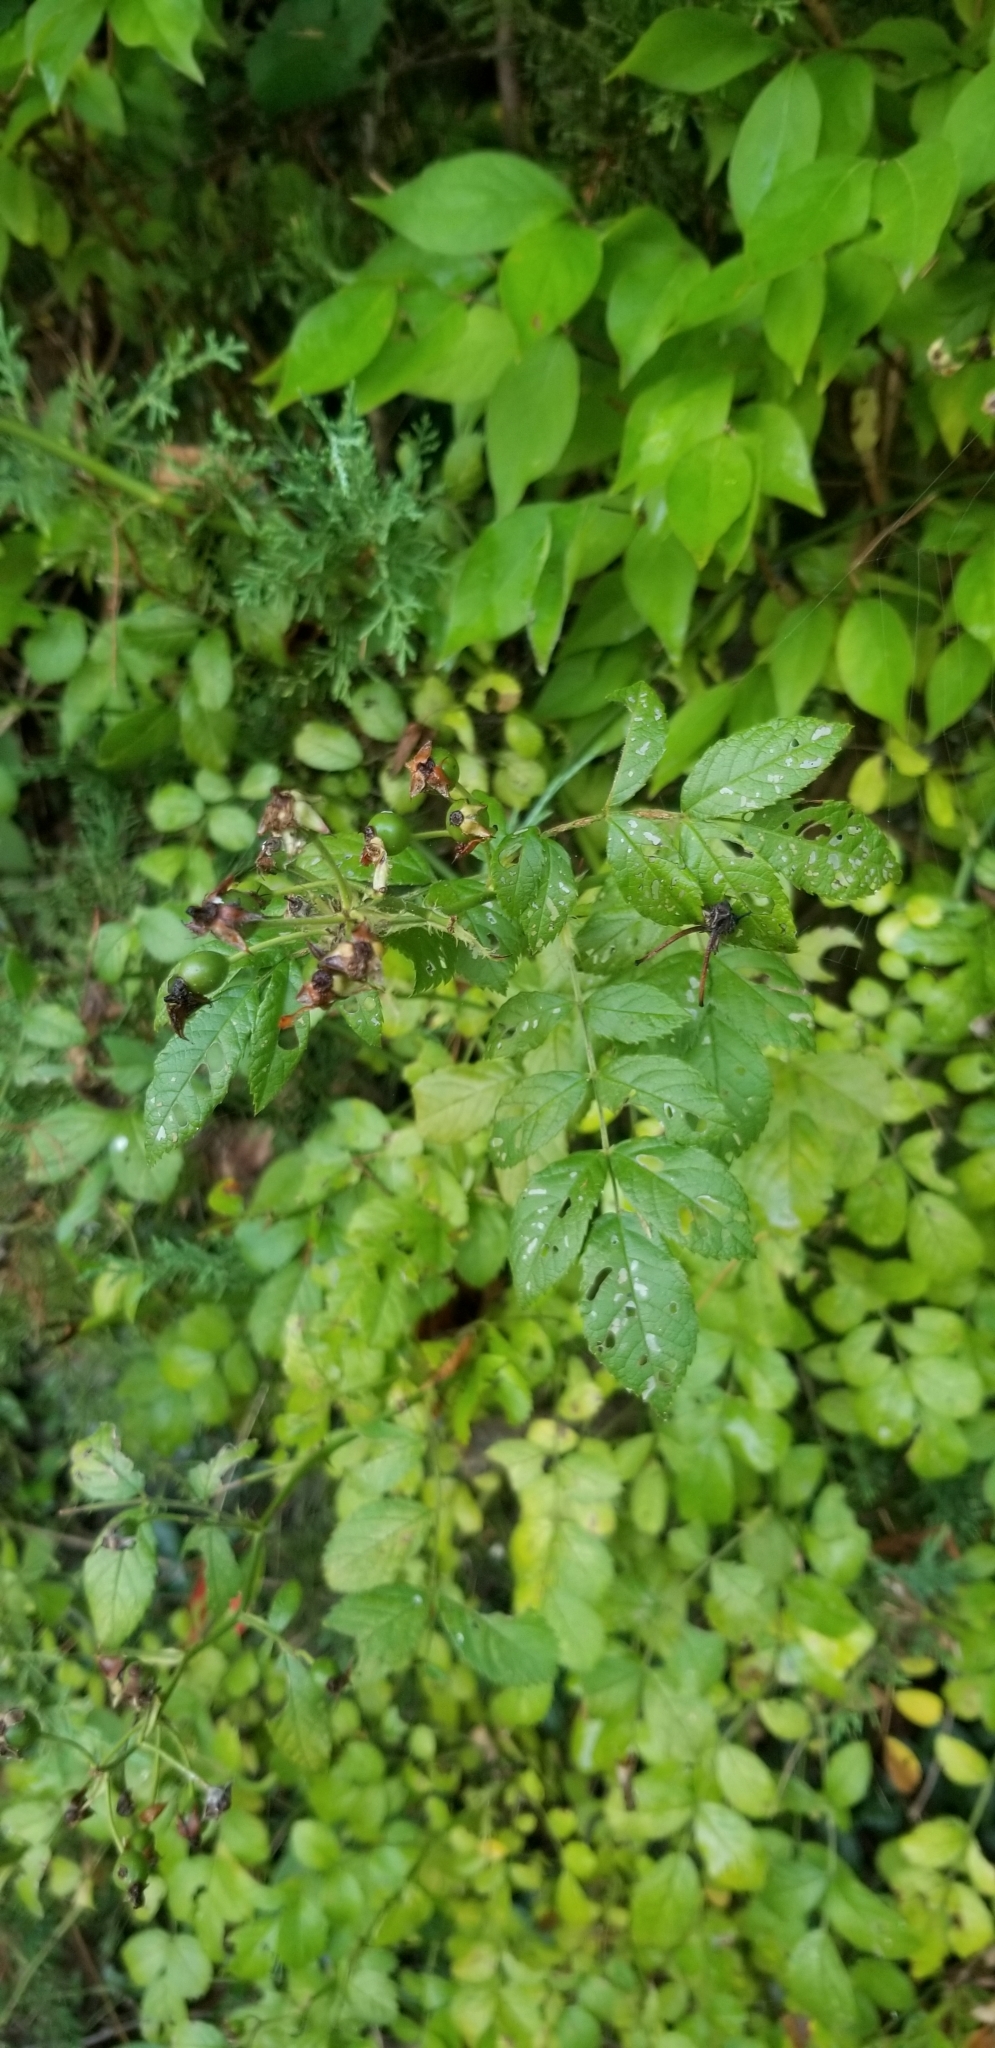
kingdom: Plantae
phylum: Tracheophyta
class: Magnoliopsida
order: Rosales
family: Rosaceae
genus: Rosa
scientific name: Rosa multiflora
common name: Multiflora rose
